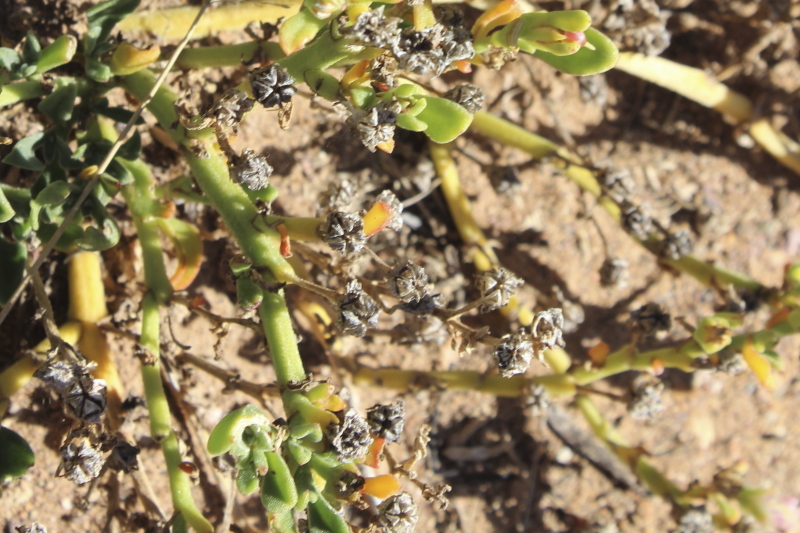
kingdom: Plantae
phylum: Tracheophyta
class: Magnoliopsida
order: Caryophyllales
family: Aizoaceae
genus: Mesembryanthemum
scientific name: Mesembryanthemum aitonis
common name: Angled iceplant
